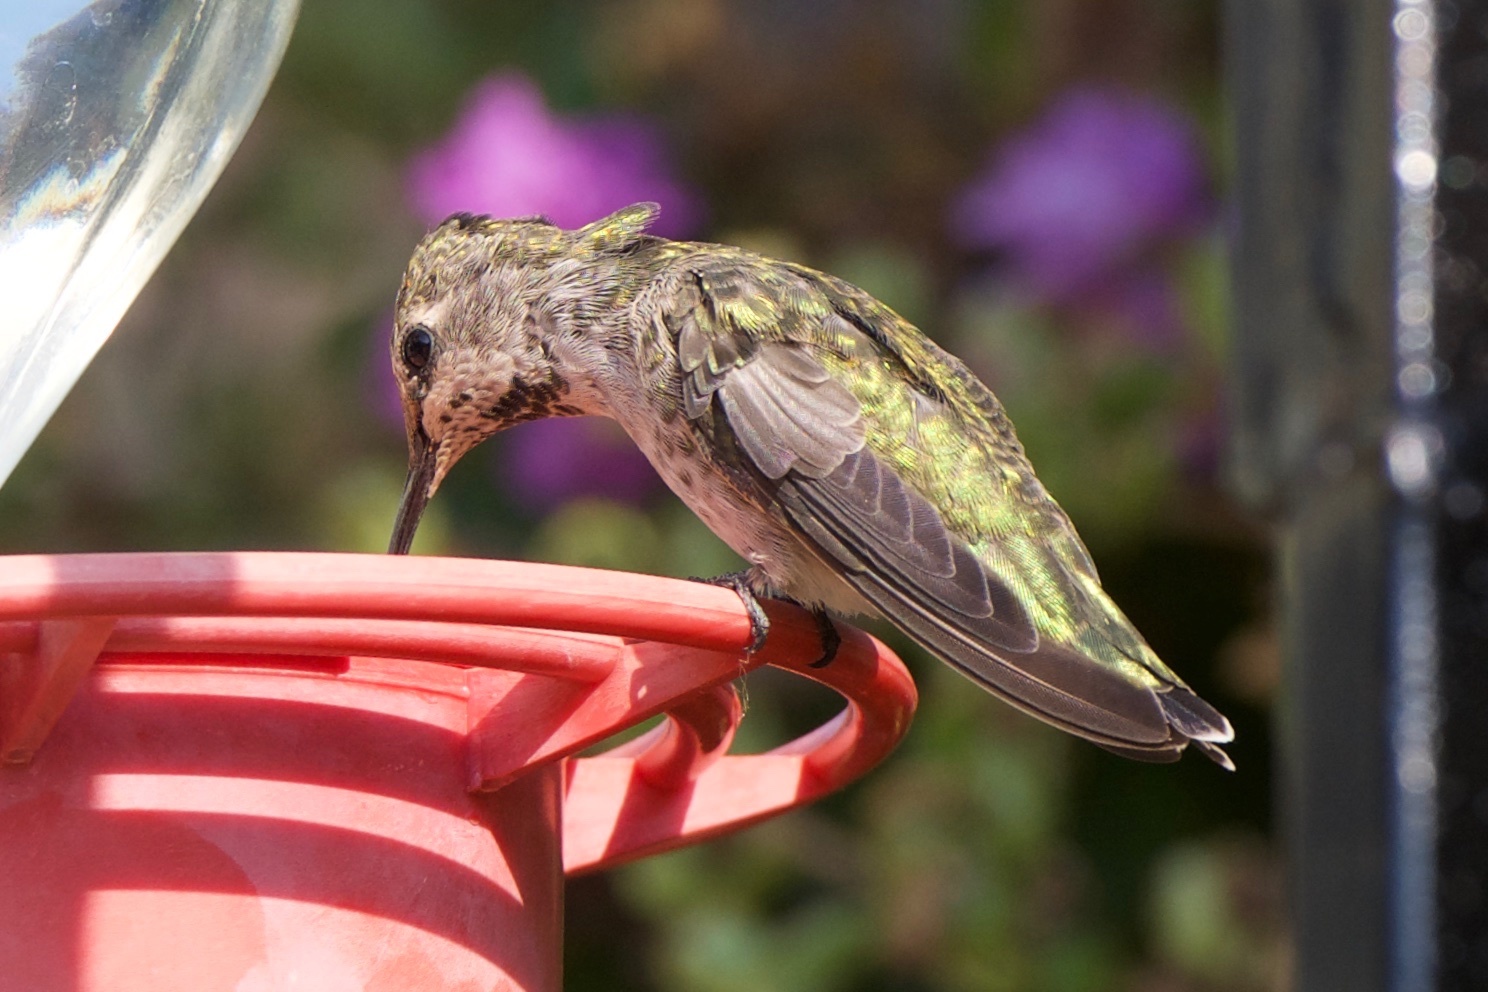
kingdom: Animalia
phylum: Chordata
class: Aves
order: Apodiformes
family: Trochilidae
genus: Calypte
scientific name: Calypte anna
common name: Anna's hummingbird
